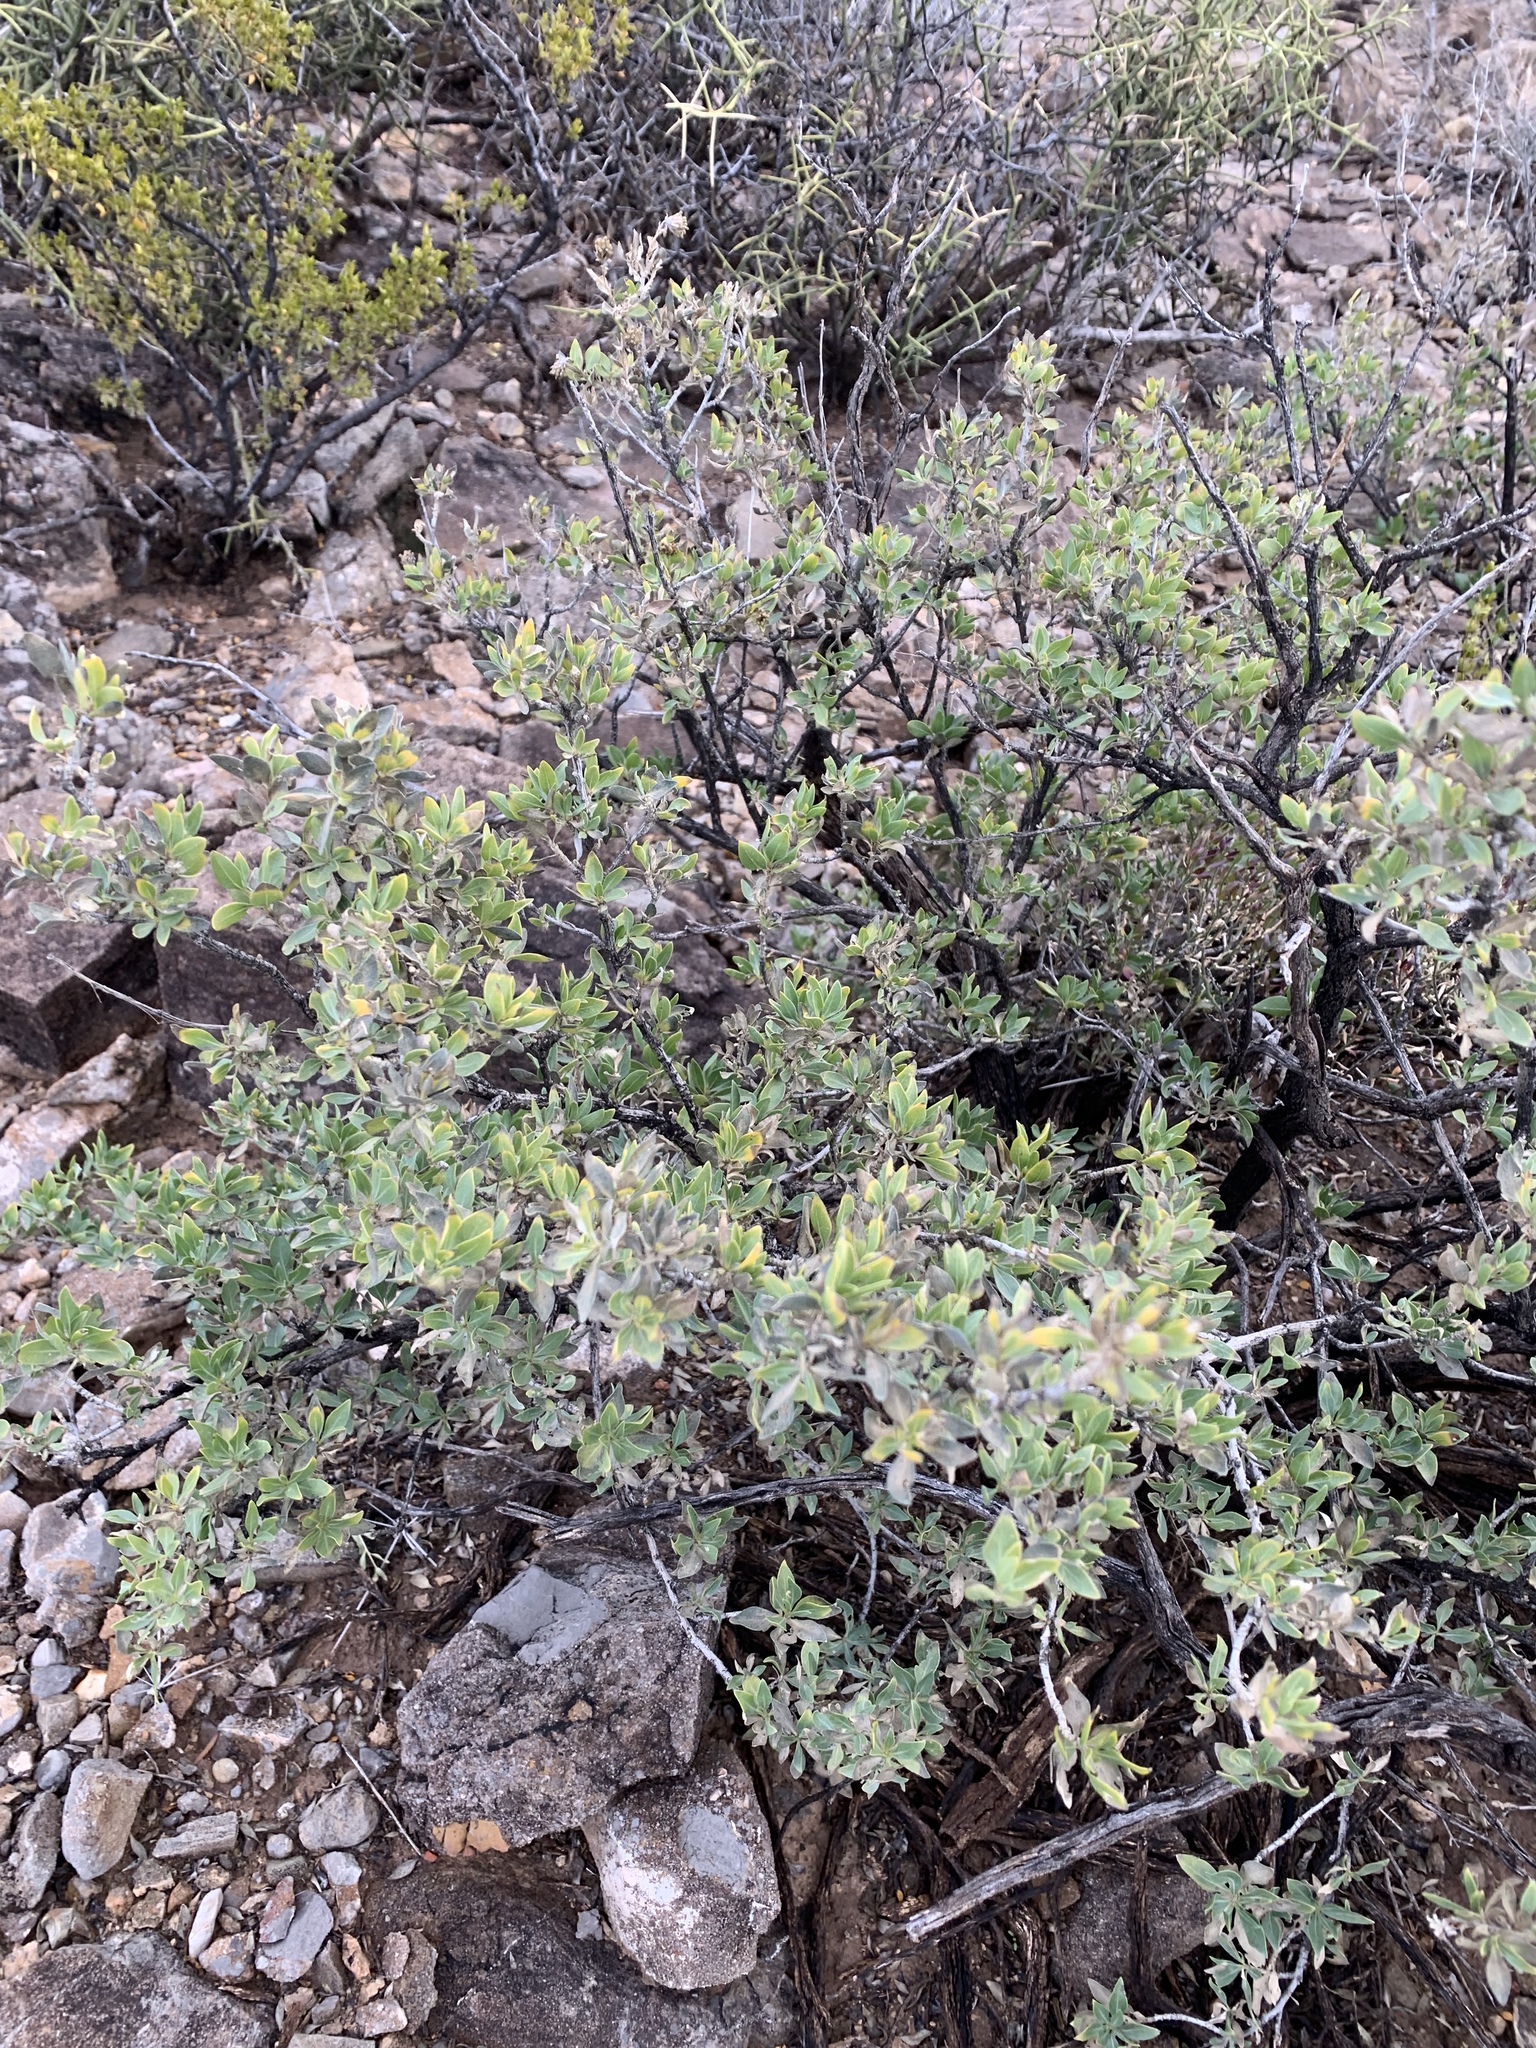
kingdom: Plantae
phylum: Tracheophyta
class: Magnoliopsida
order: Asterales
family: Asteraceae
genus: Flourensia
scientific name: Flourensia cernua
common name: Varnishbush
